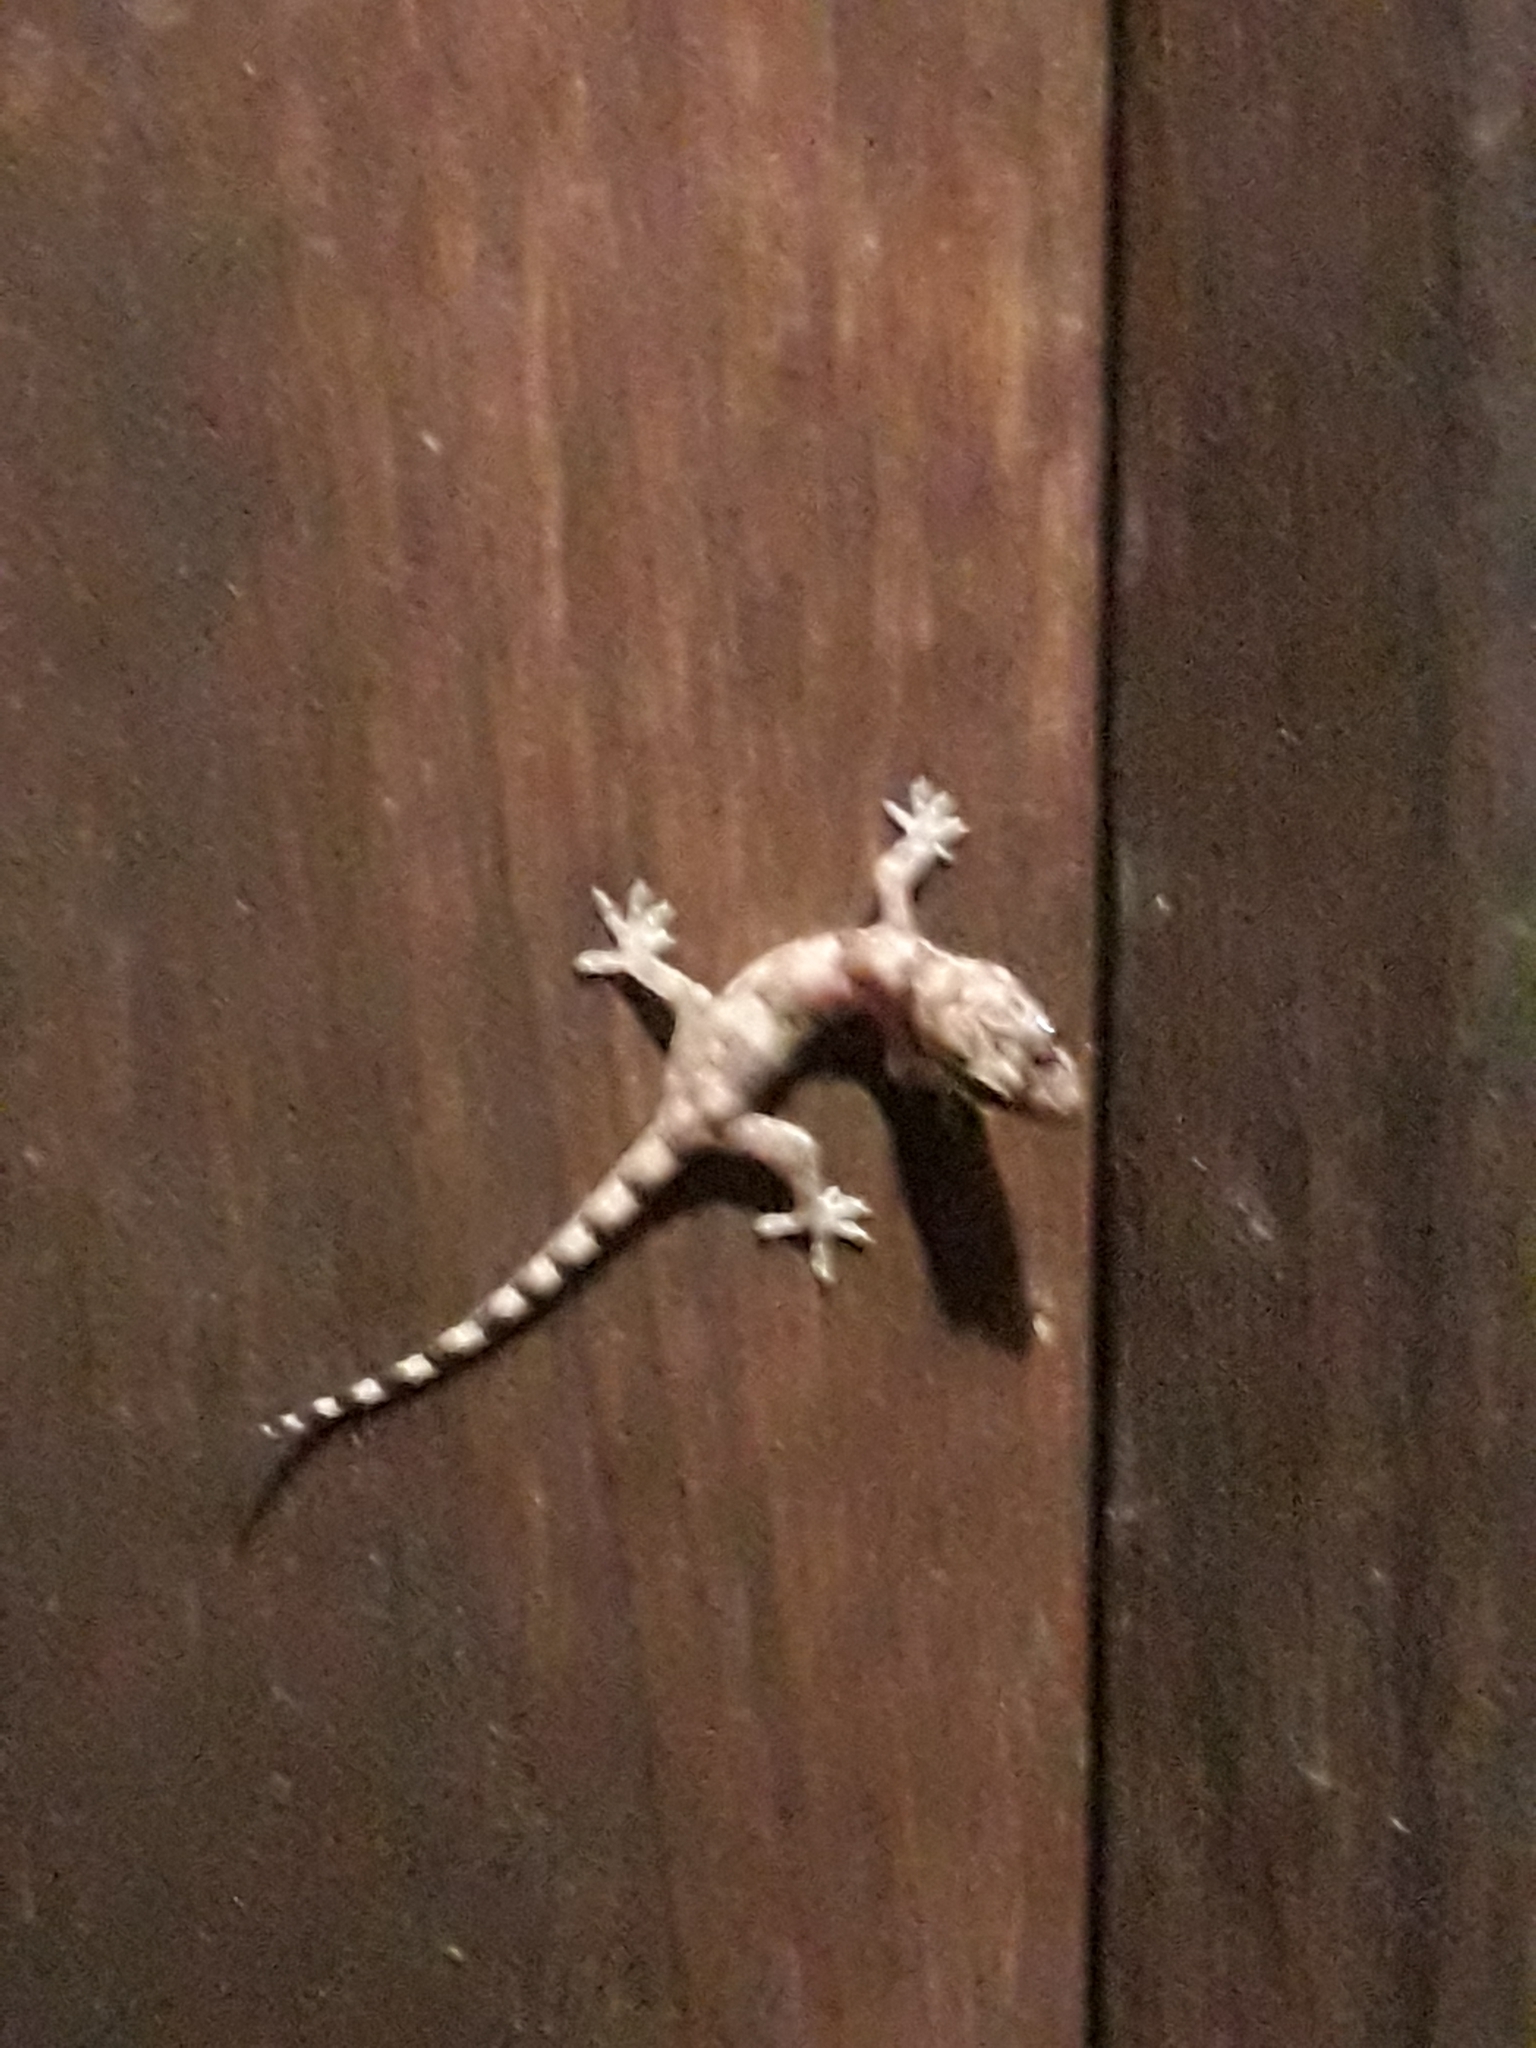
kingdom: Animalia
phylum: Chordata
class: Squamata
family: Gekkonidae
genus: Hemidactylus
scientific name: Hemidactylus mabouia
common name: House gecko
